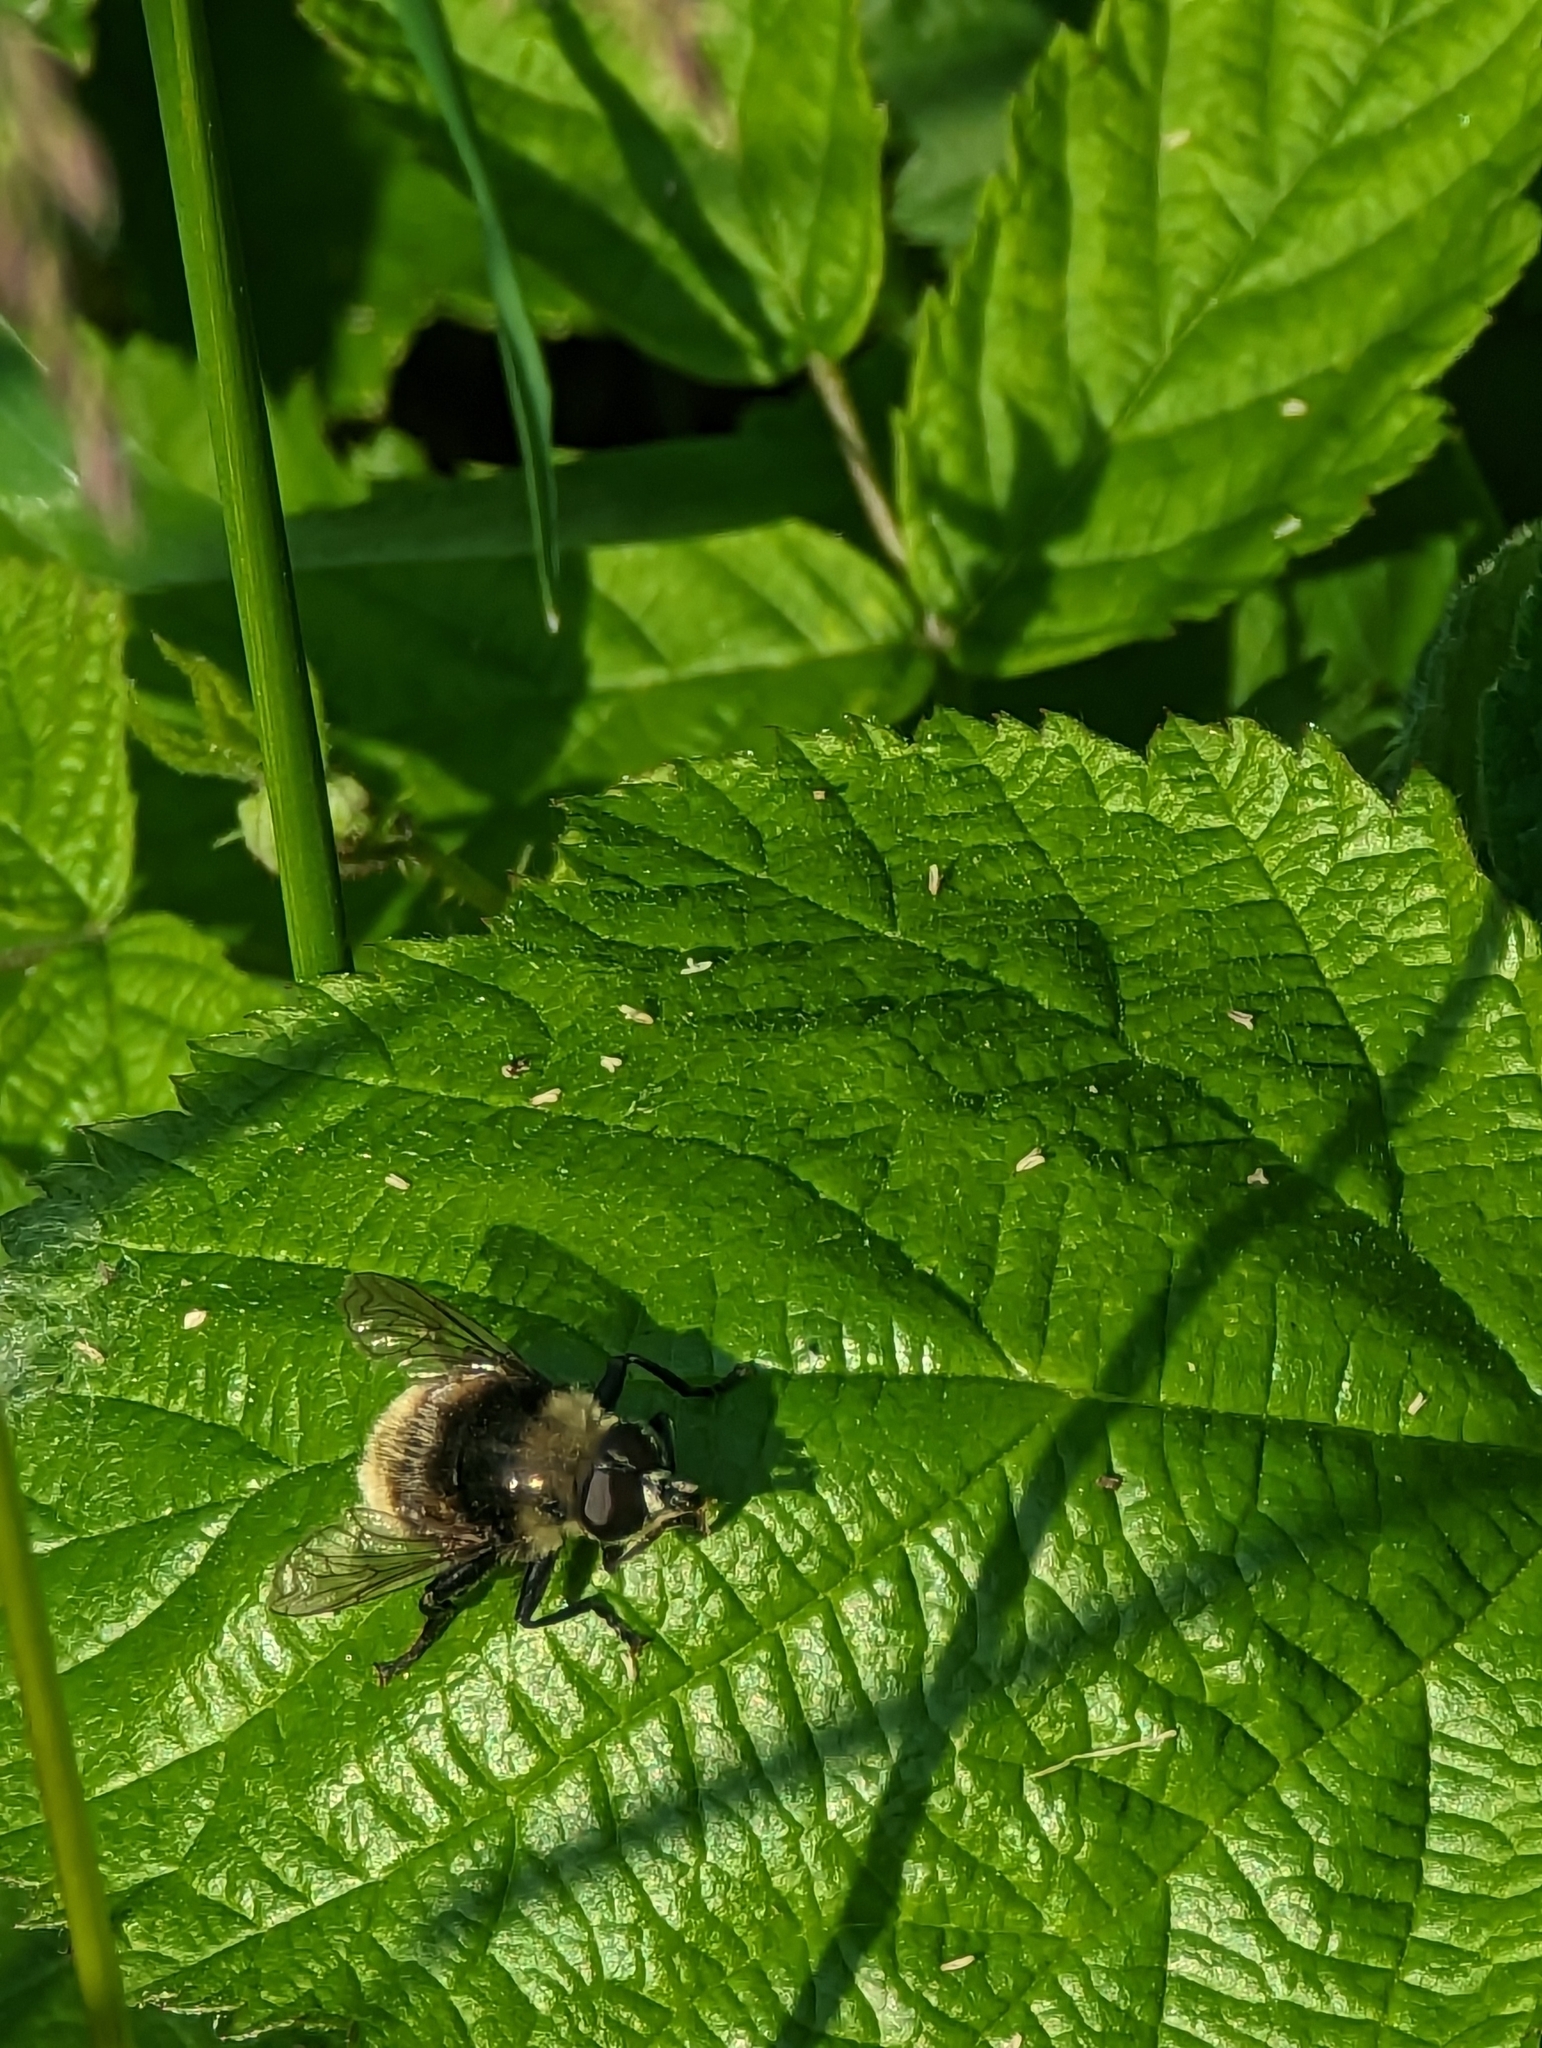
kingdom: Animalia
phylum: Arthropoda
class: Insecta
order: Diptera
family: Syrphidae
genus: Merodon
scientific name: Merodon equestris
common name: Greater bulb-fly
